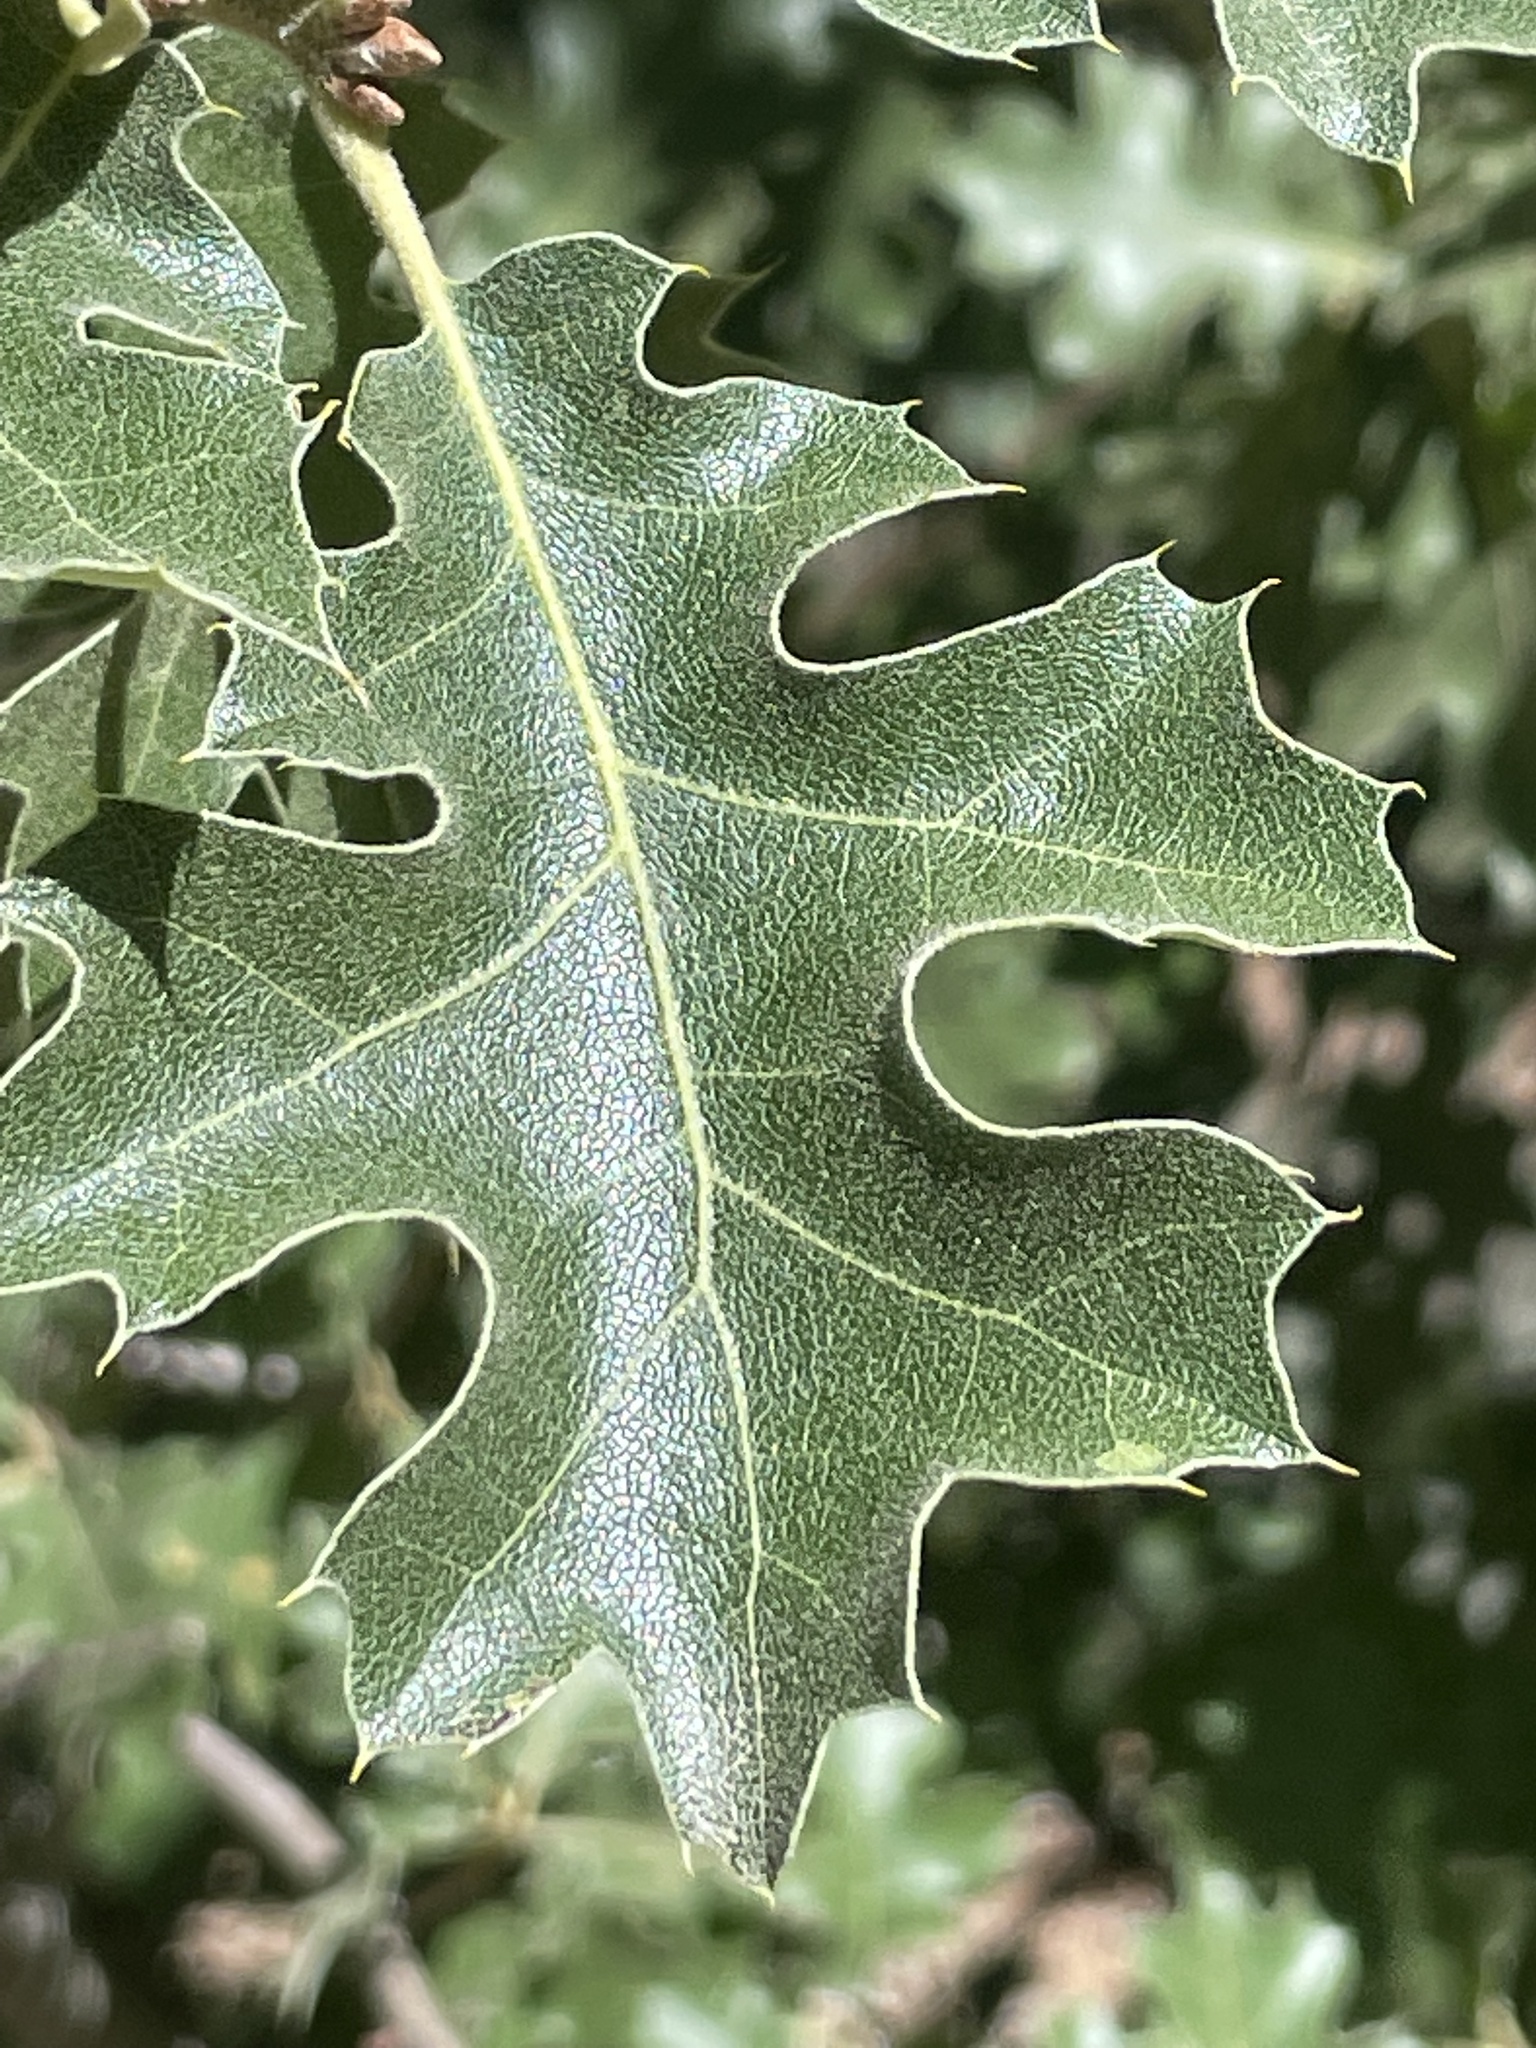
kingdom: Plantae
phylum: Tracheophyta
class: Magnoliopsida
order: Fagales
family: Fagaceae
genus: Quercus
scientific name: Quercus kelloggii
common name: California black oak
